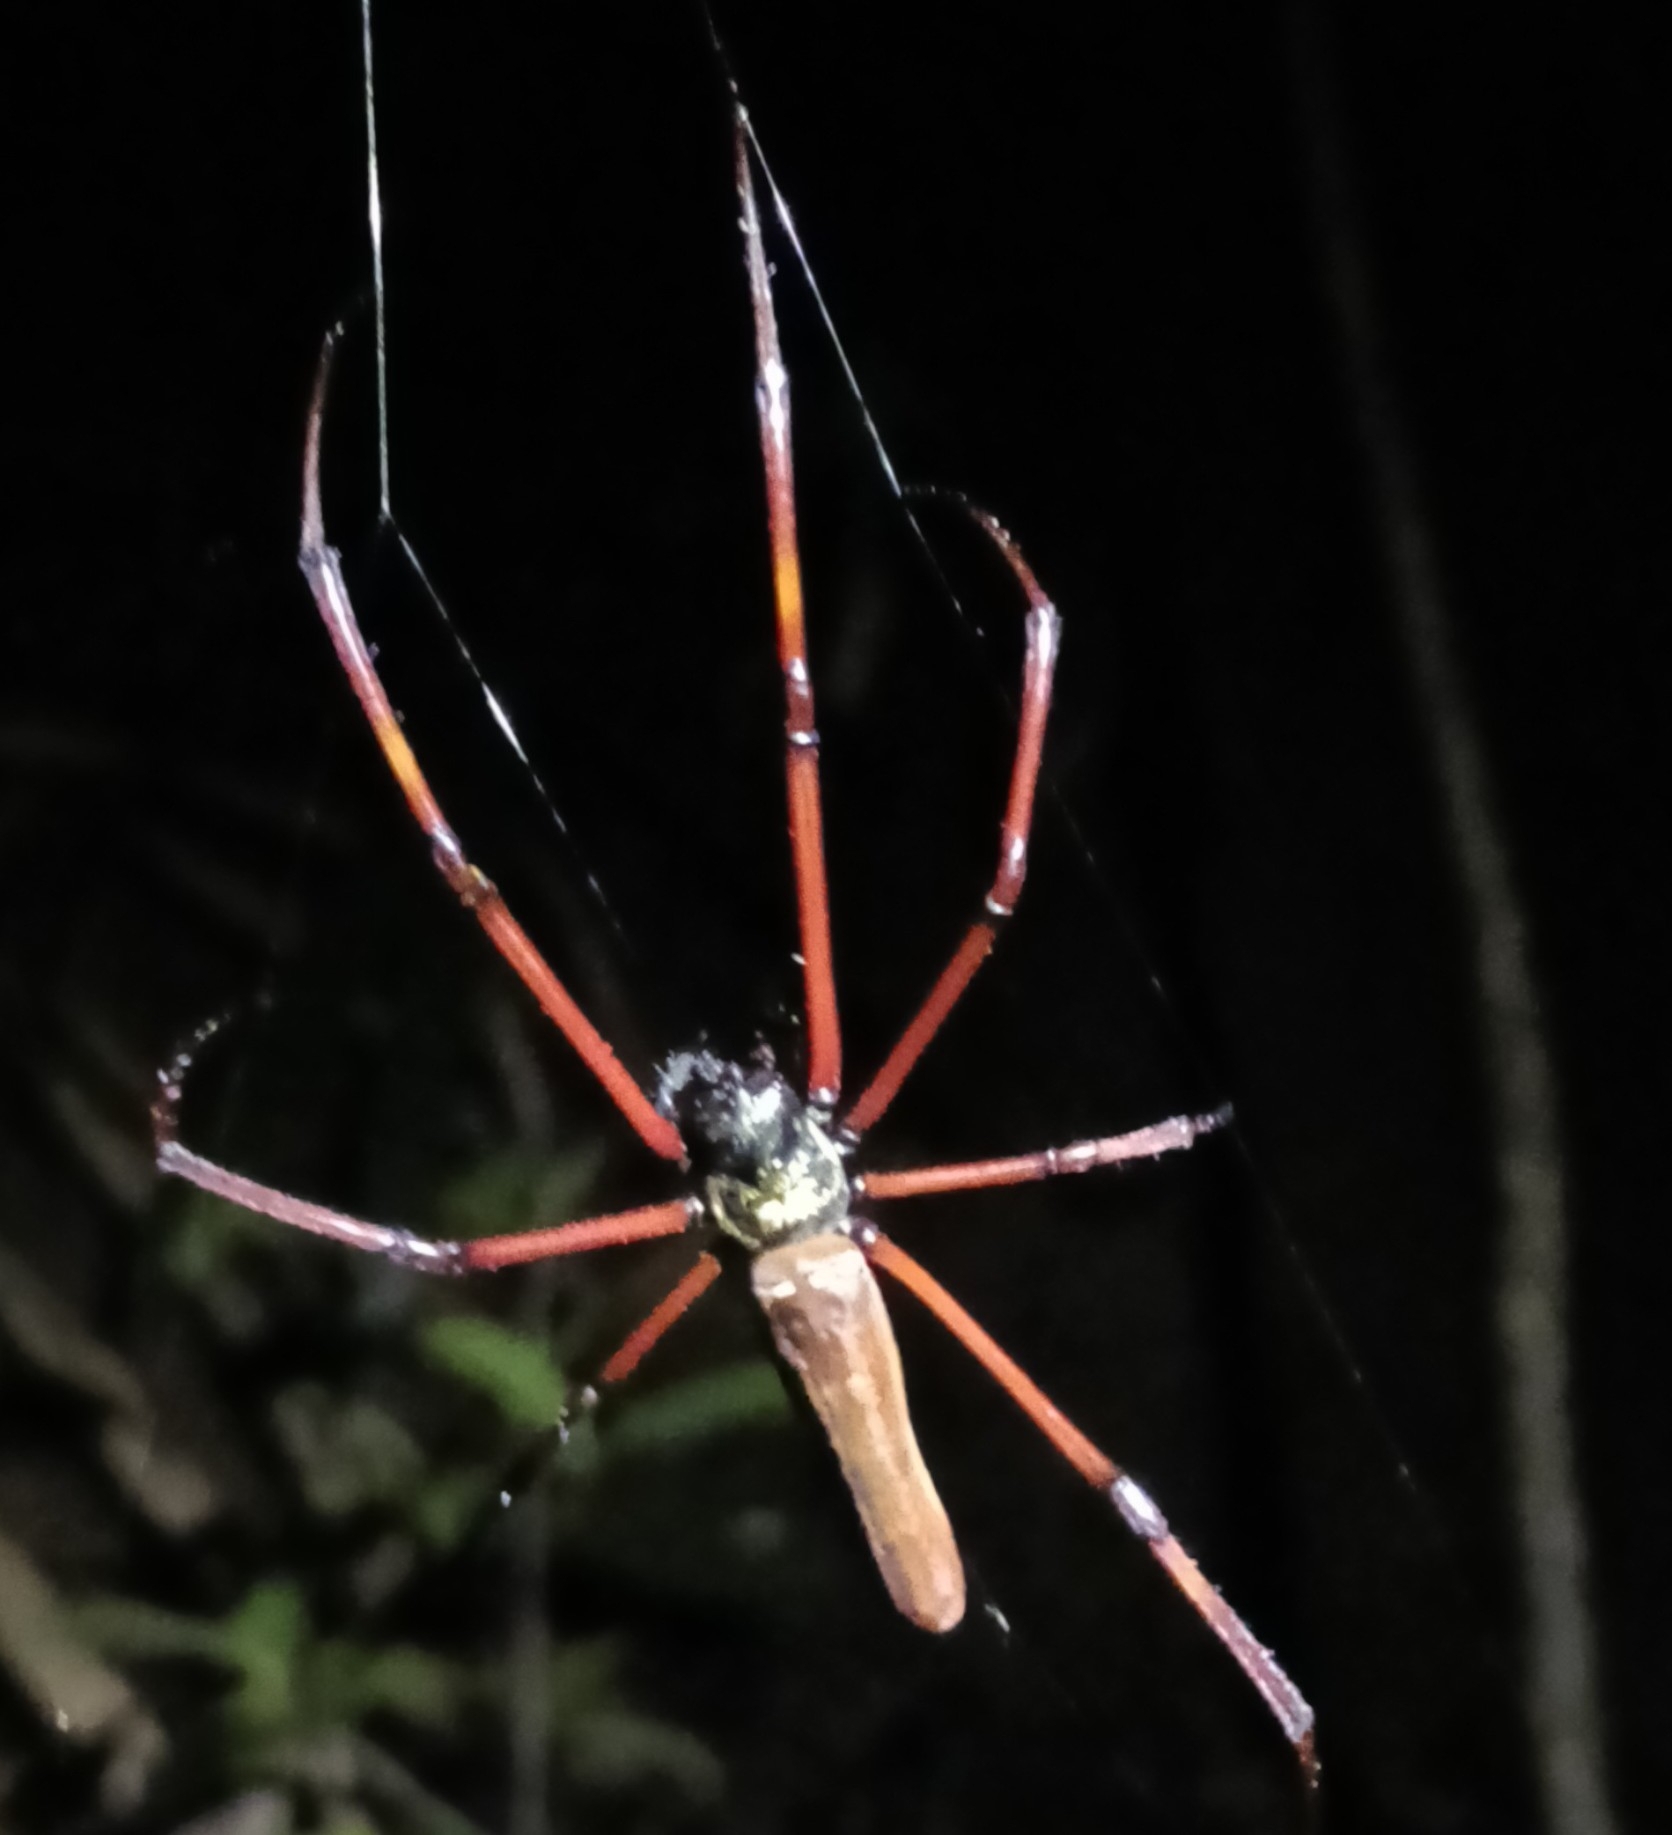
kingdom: Animalia
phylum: Arthropoda
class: Arachnida
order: Araneae
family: Araneidae
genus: Nephila
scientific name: Nephila kuhli
